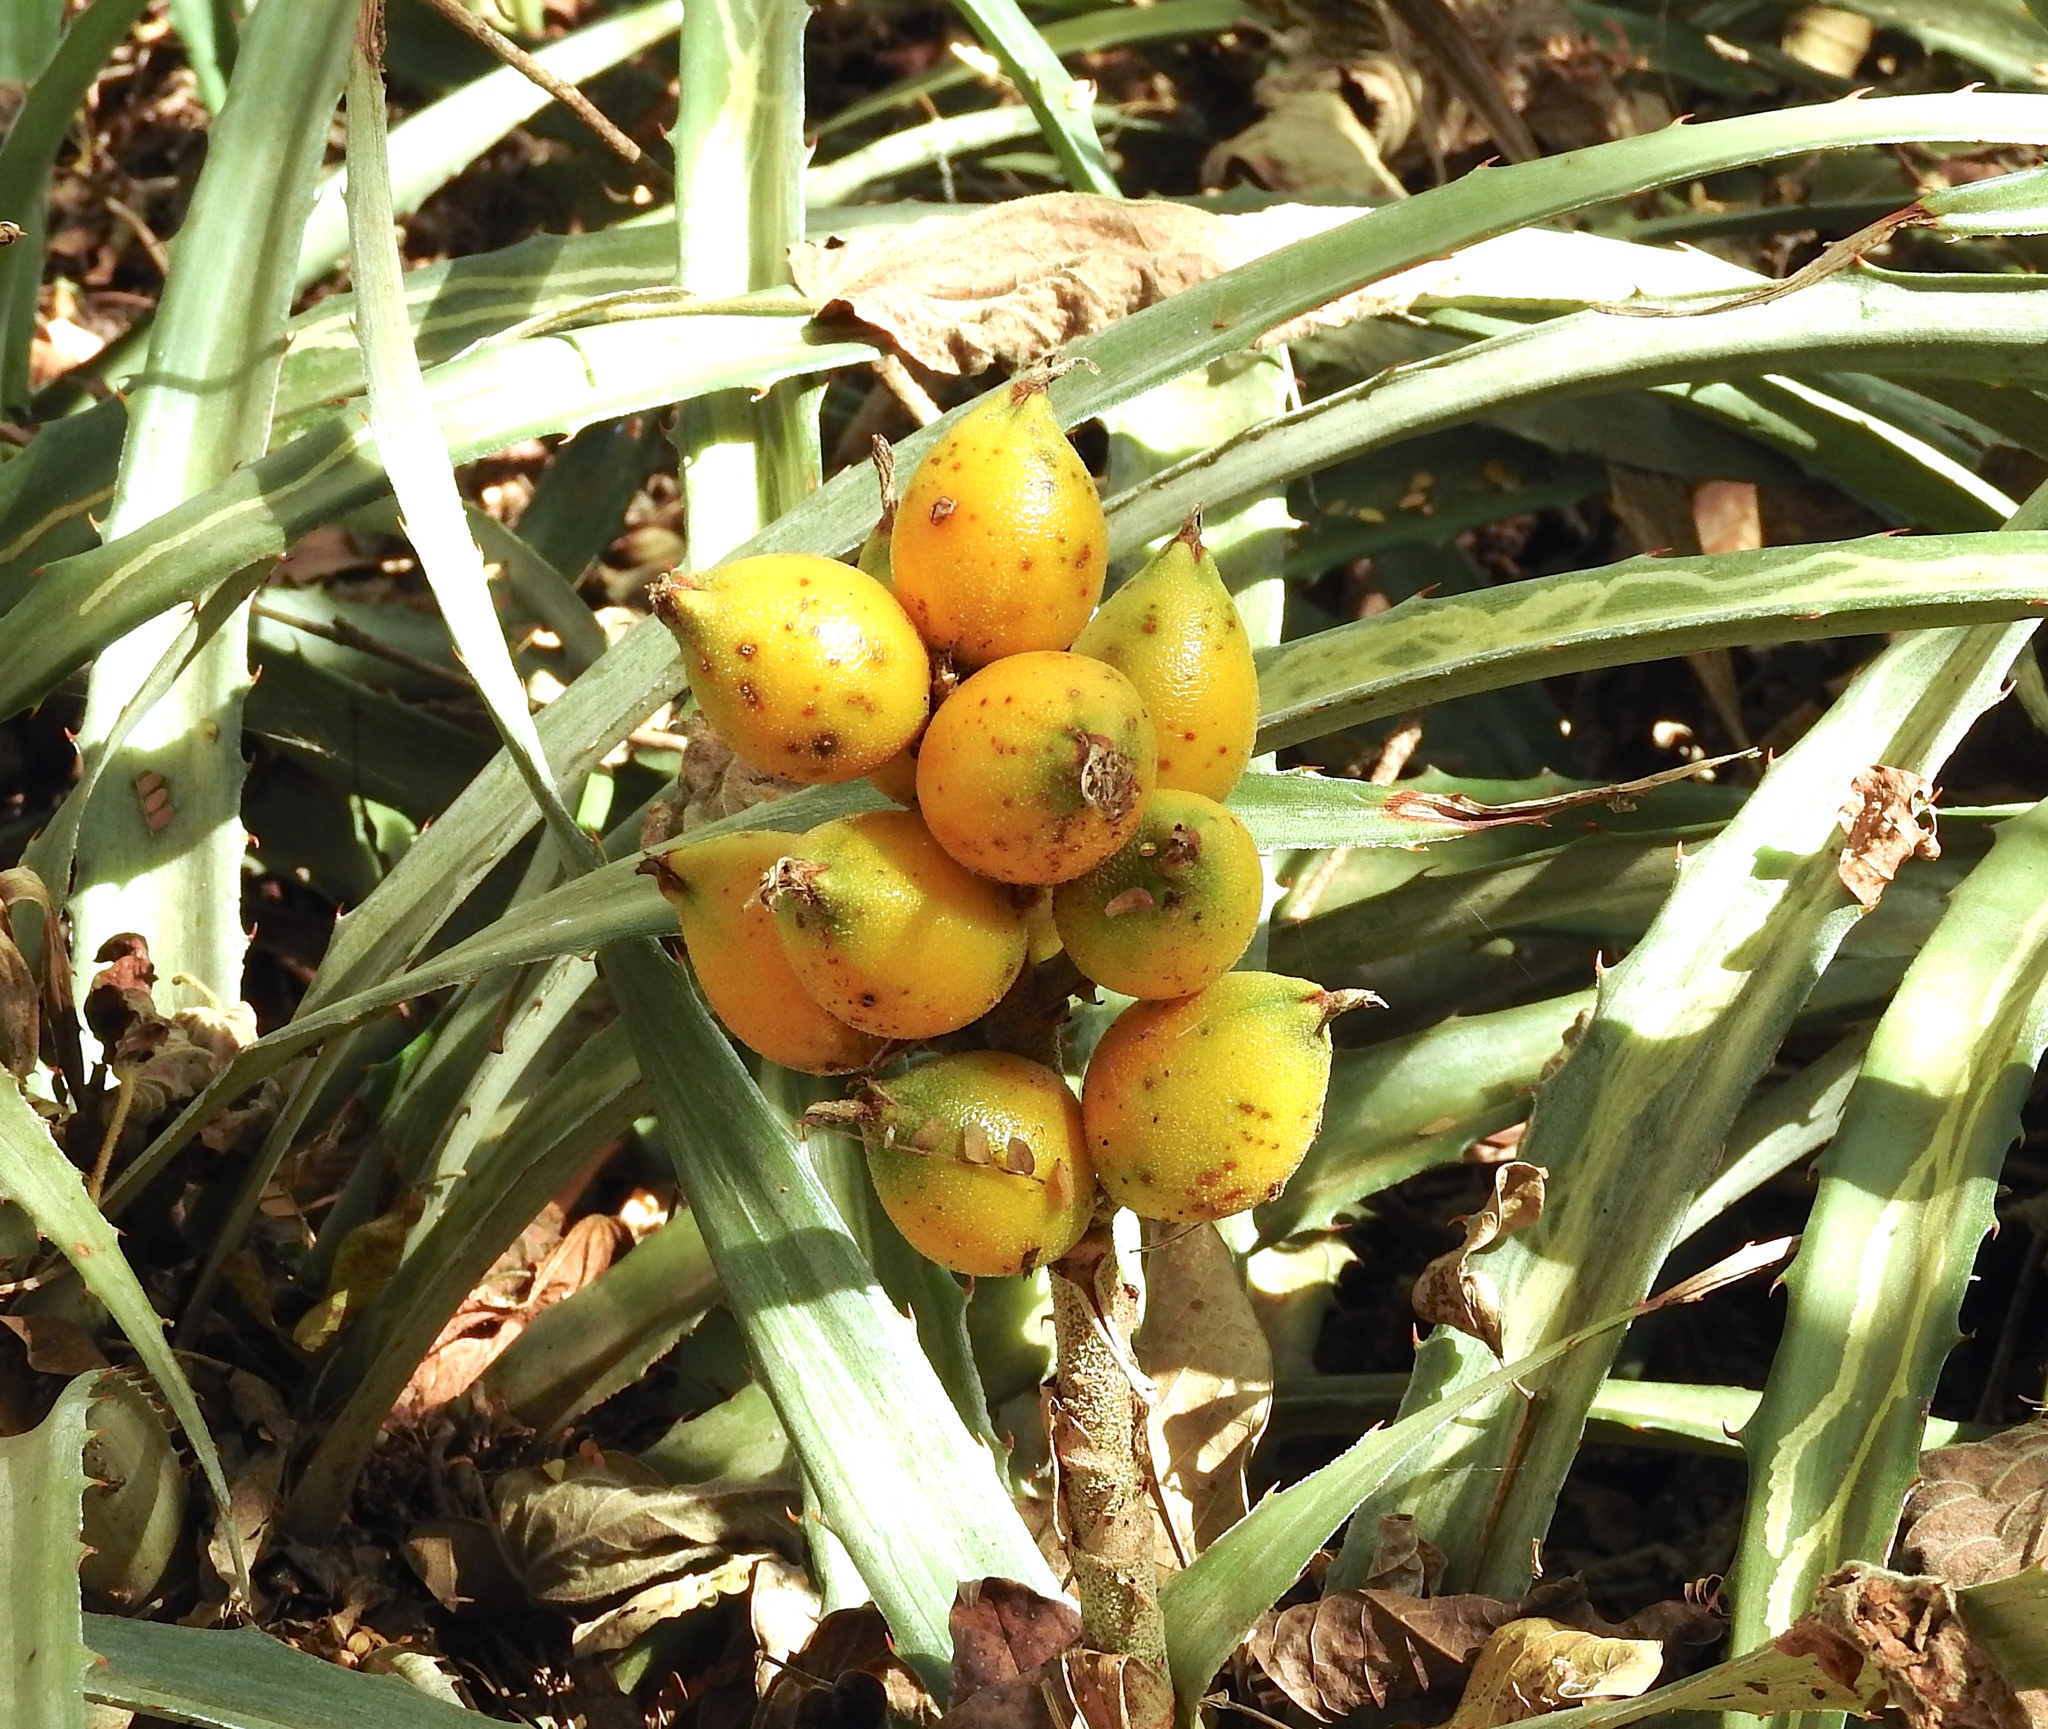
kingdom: Plantae
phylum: Tracheophyta
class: Liliopsida
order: Poales
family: Bromeliaceae
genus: Bromelia
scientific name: Bromelia pinguin
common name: Pinguin
